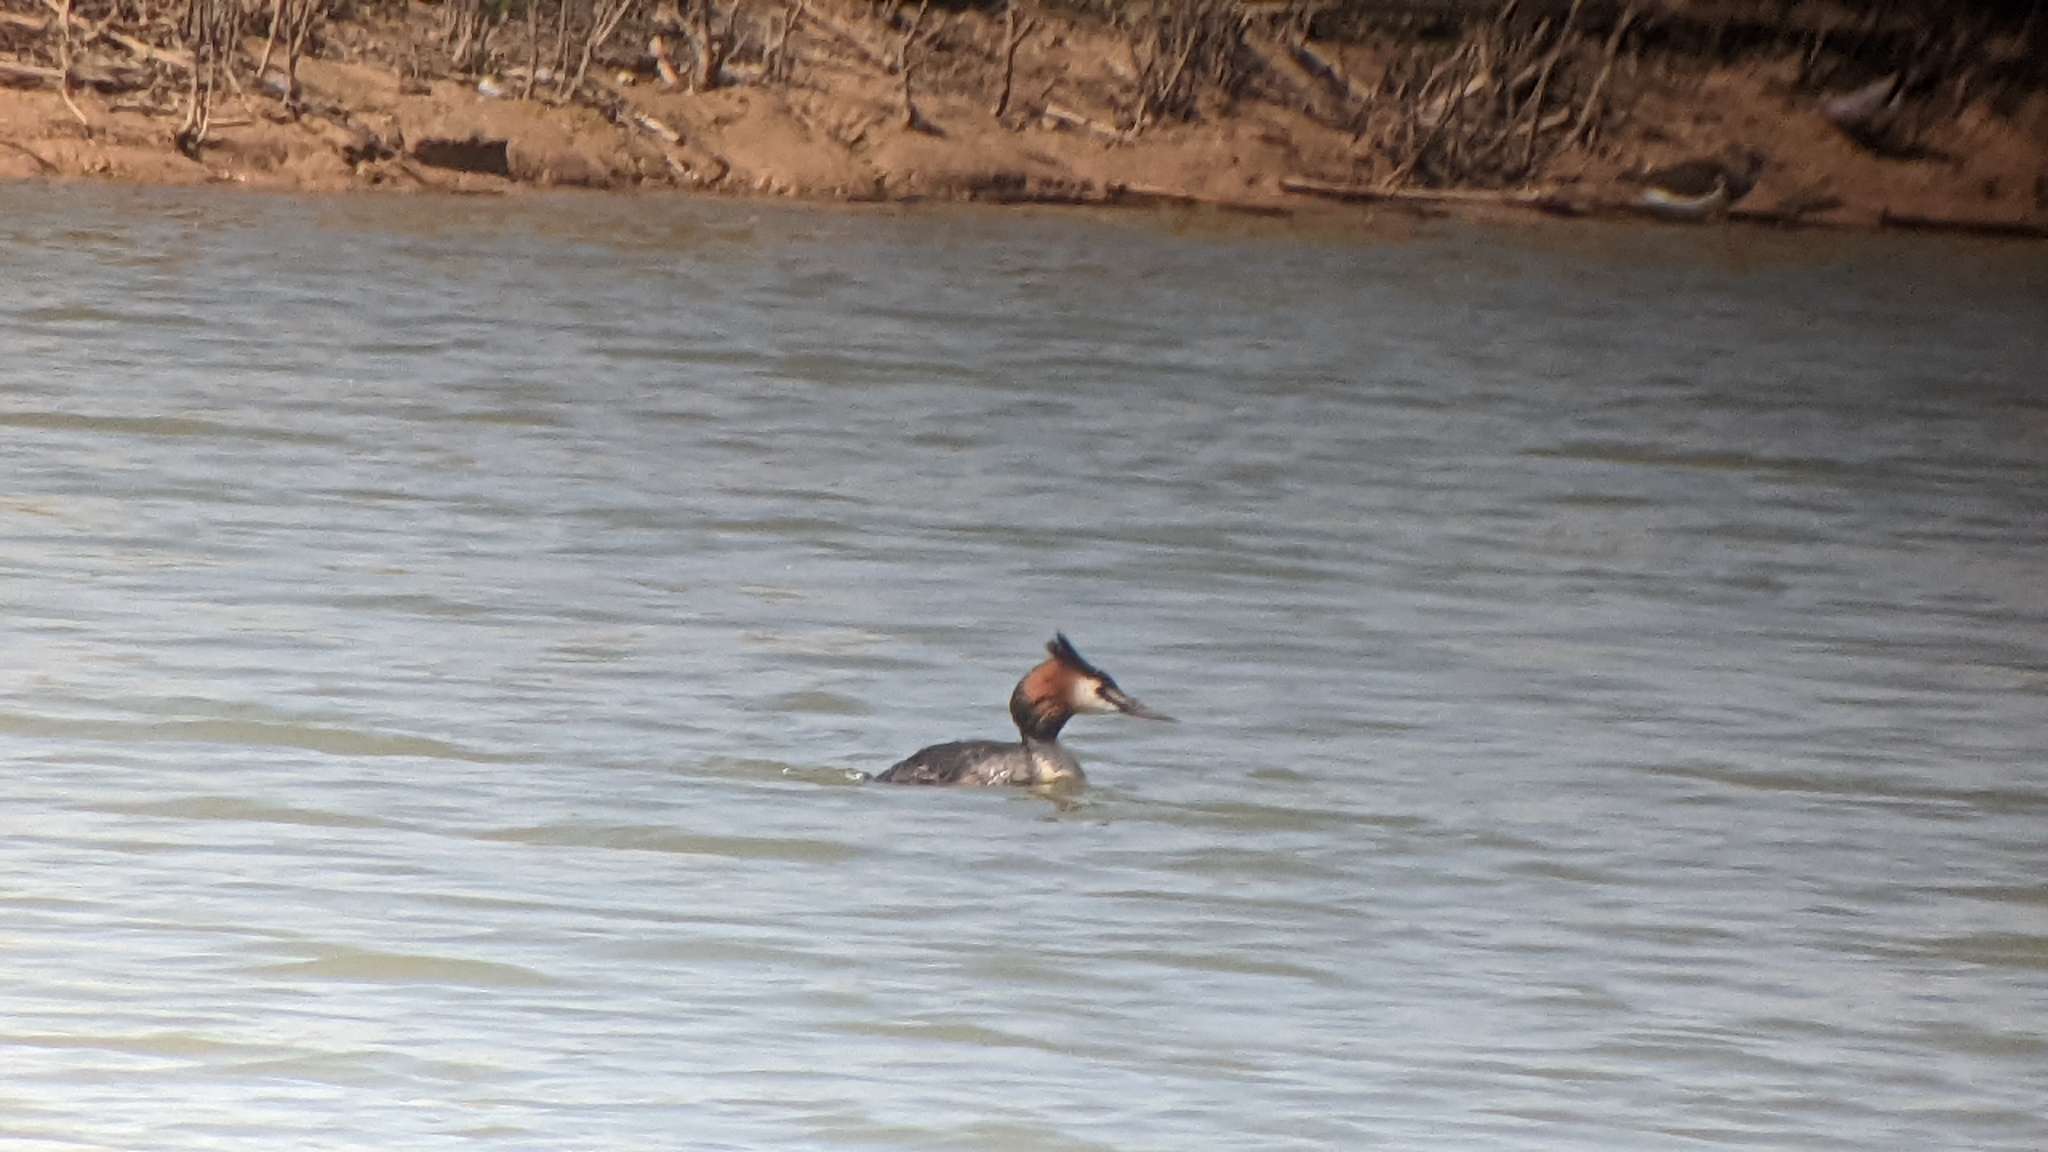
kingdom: Animalia
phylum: Chordata
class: Aves
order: Podicipediformes
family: Podicipedidae
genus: Podiceps
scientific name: Podiceps cristatus
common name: Great crested grebe
